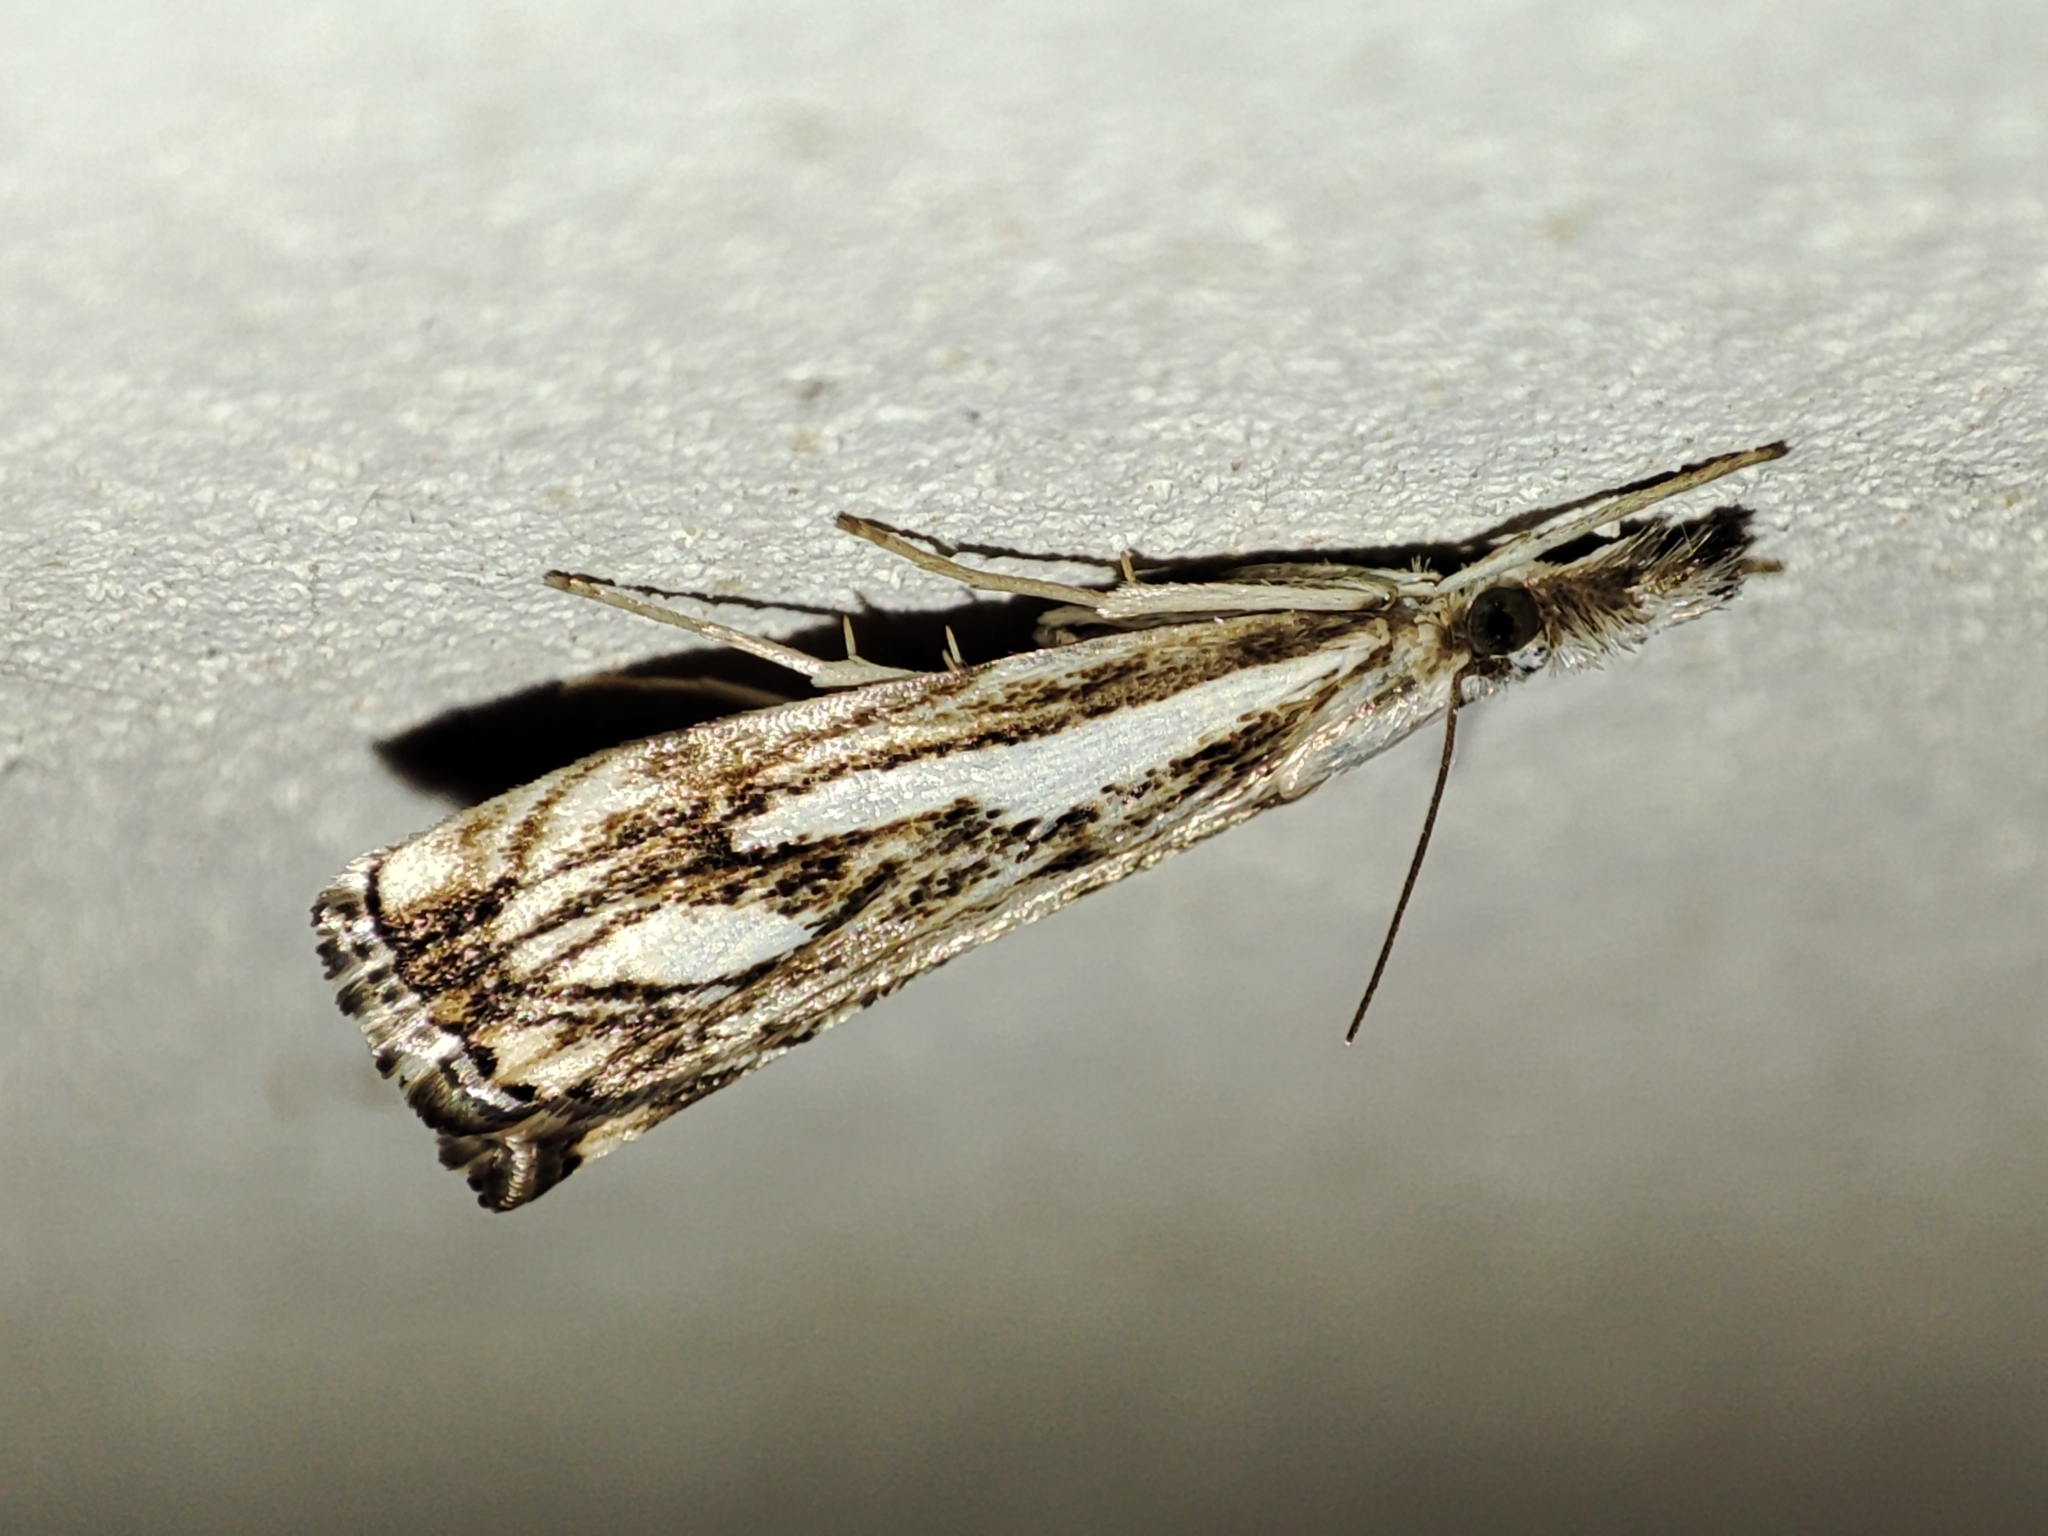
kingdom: Animalia
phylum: Arthropoda
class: Insecta
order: Lepidoptera
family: Crambidae
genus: Catoptria
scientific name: Catoptria falsella
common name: Chequered grass-veneer
